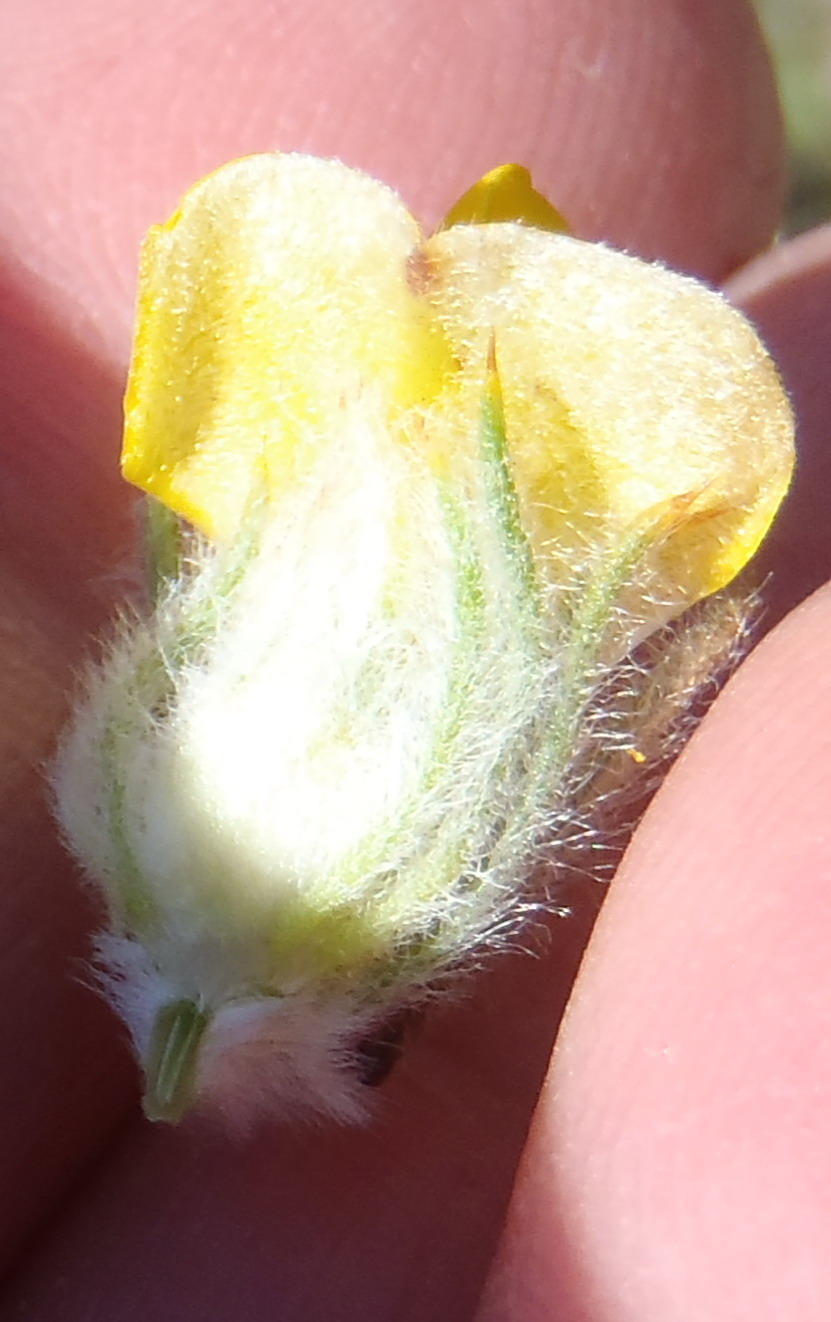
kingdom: Plantae
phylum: Tracheophyta
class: Magnoliopsida
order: Fabales
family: Fabaceae
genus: Aspalathus
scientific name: Aspalathus shawii
